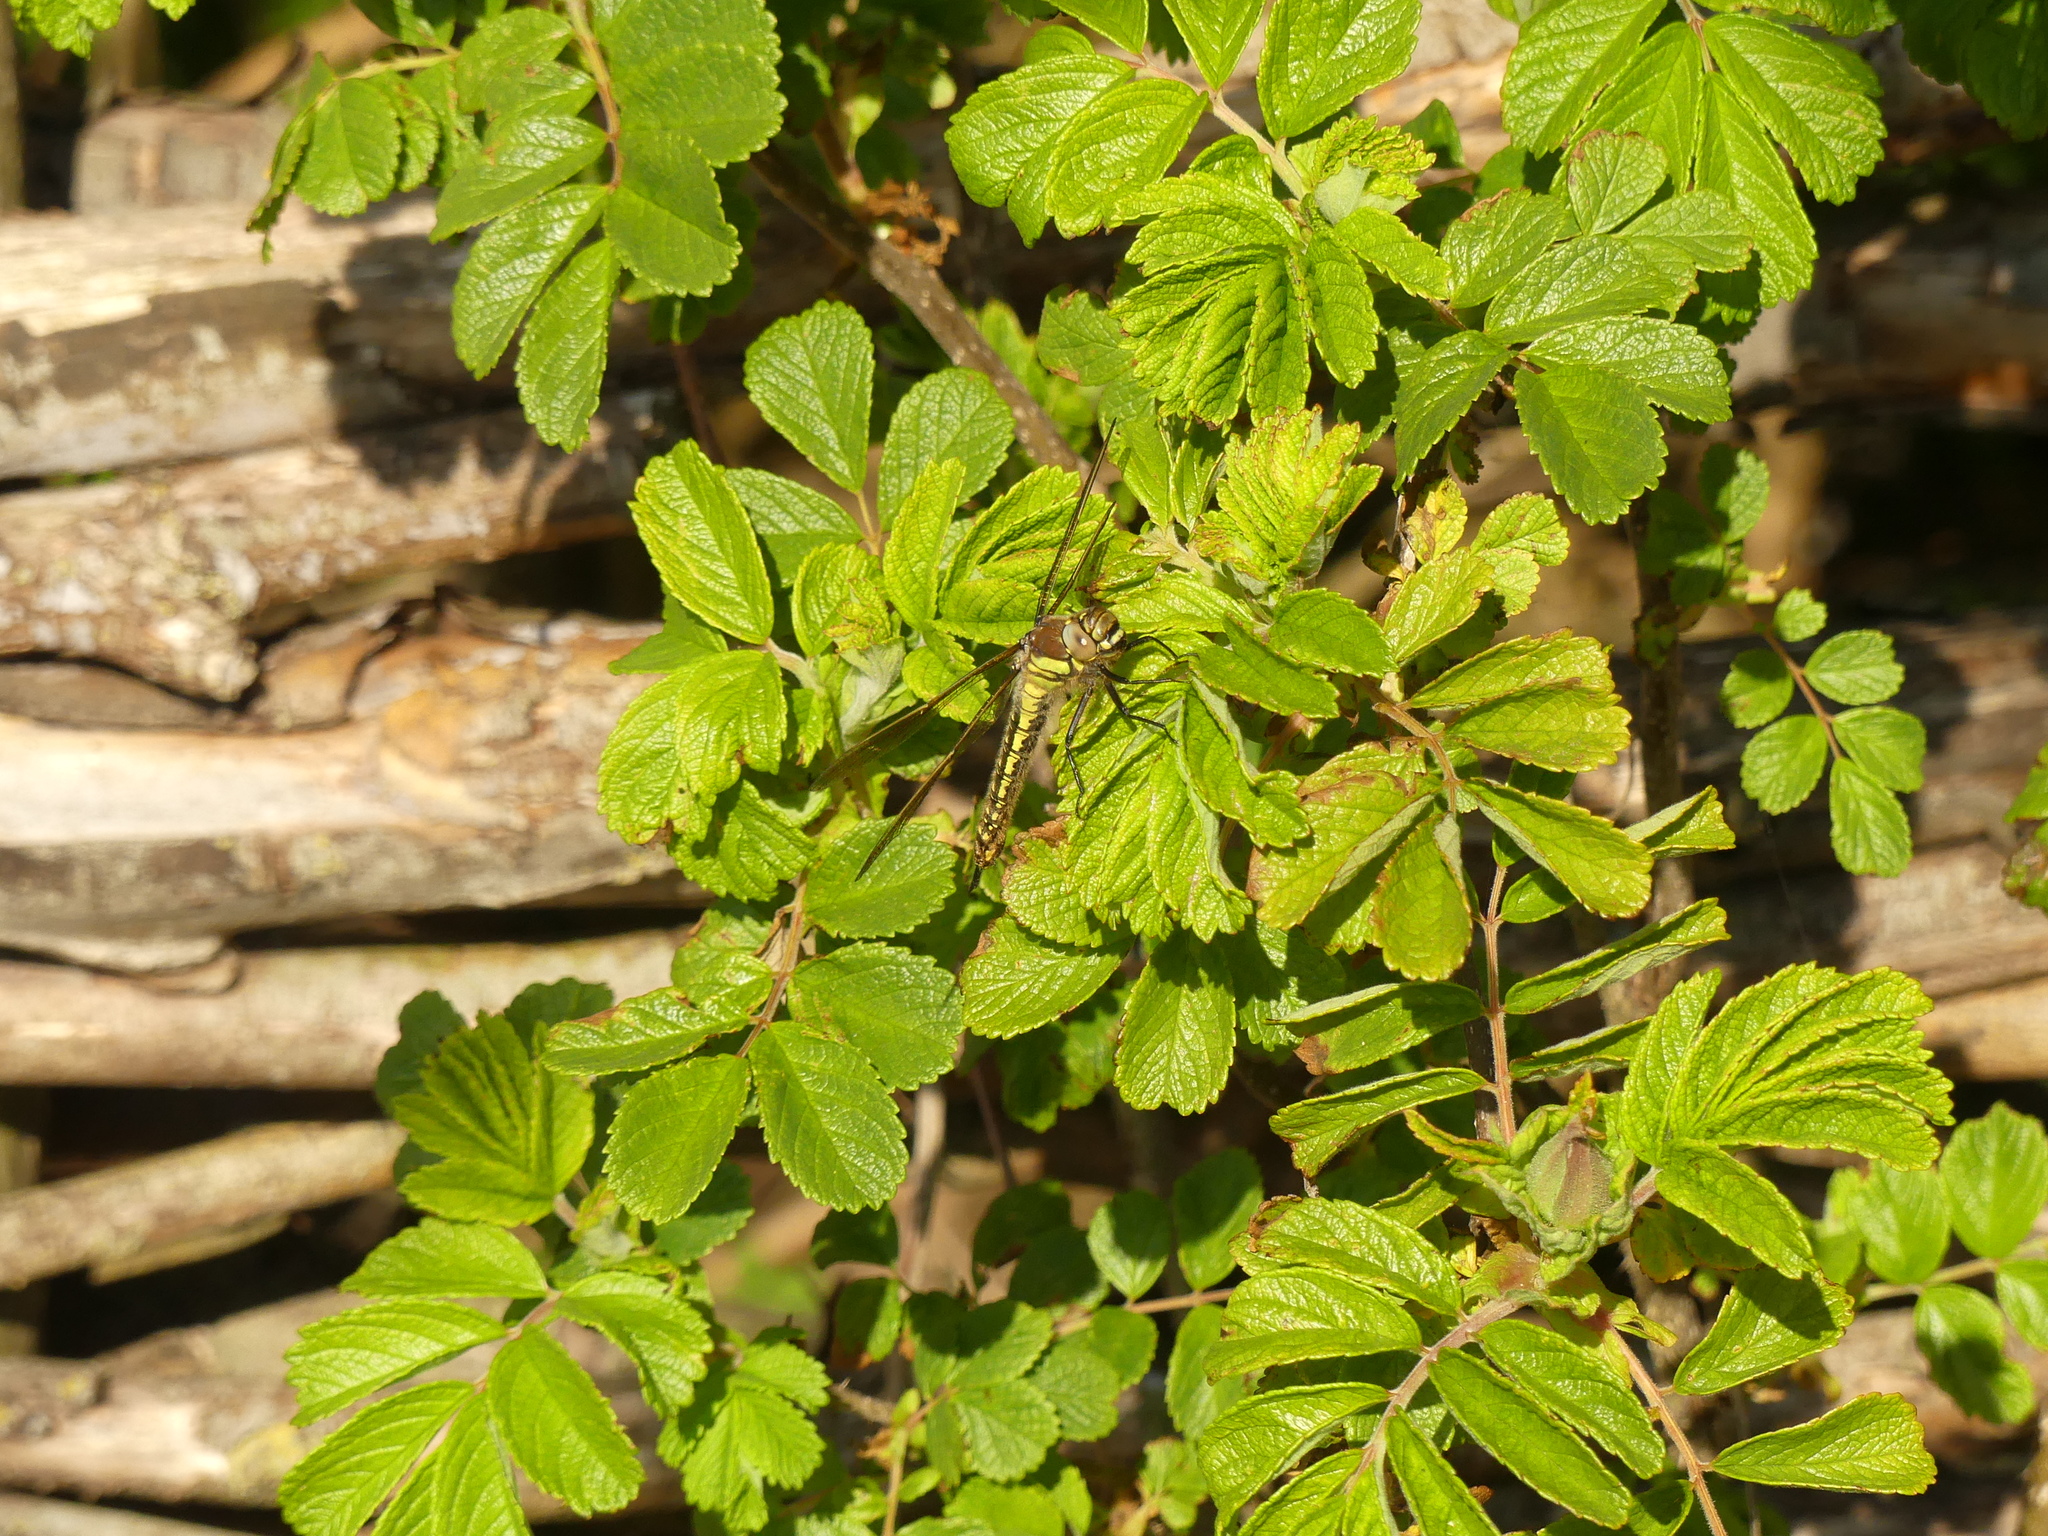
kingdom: Animalia
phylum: Arthropoda
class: Insecta
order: Odonata
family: Aeshnidae
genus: Brachytron
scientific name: Brachytron pratense
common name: Hairy hawker
